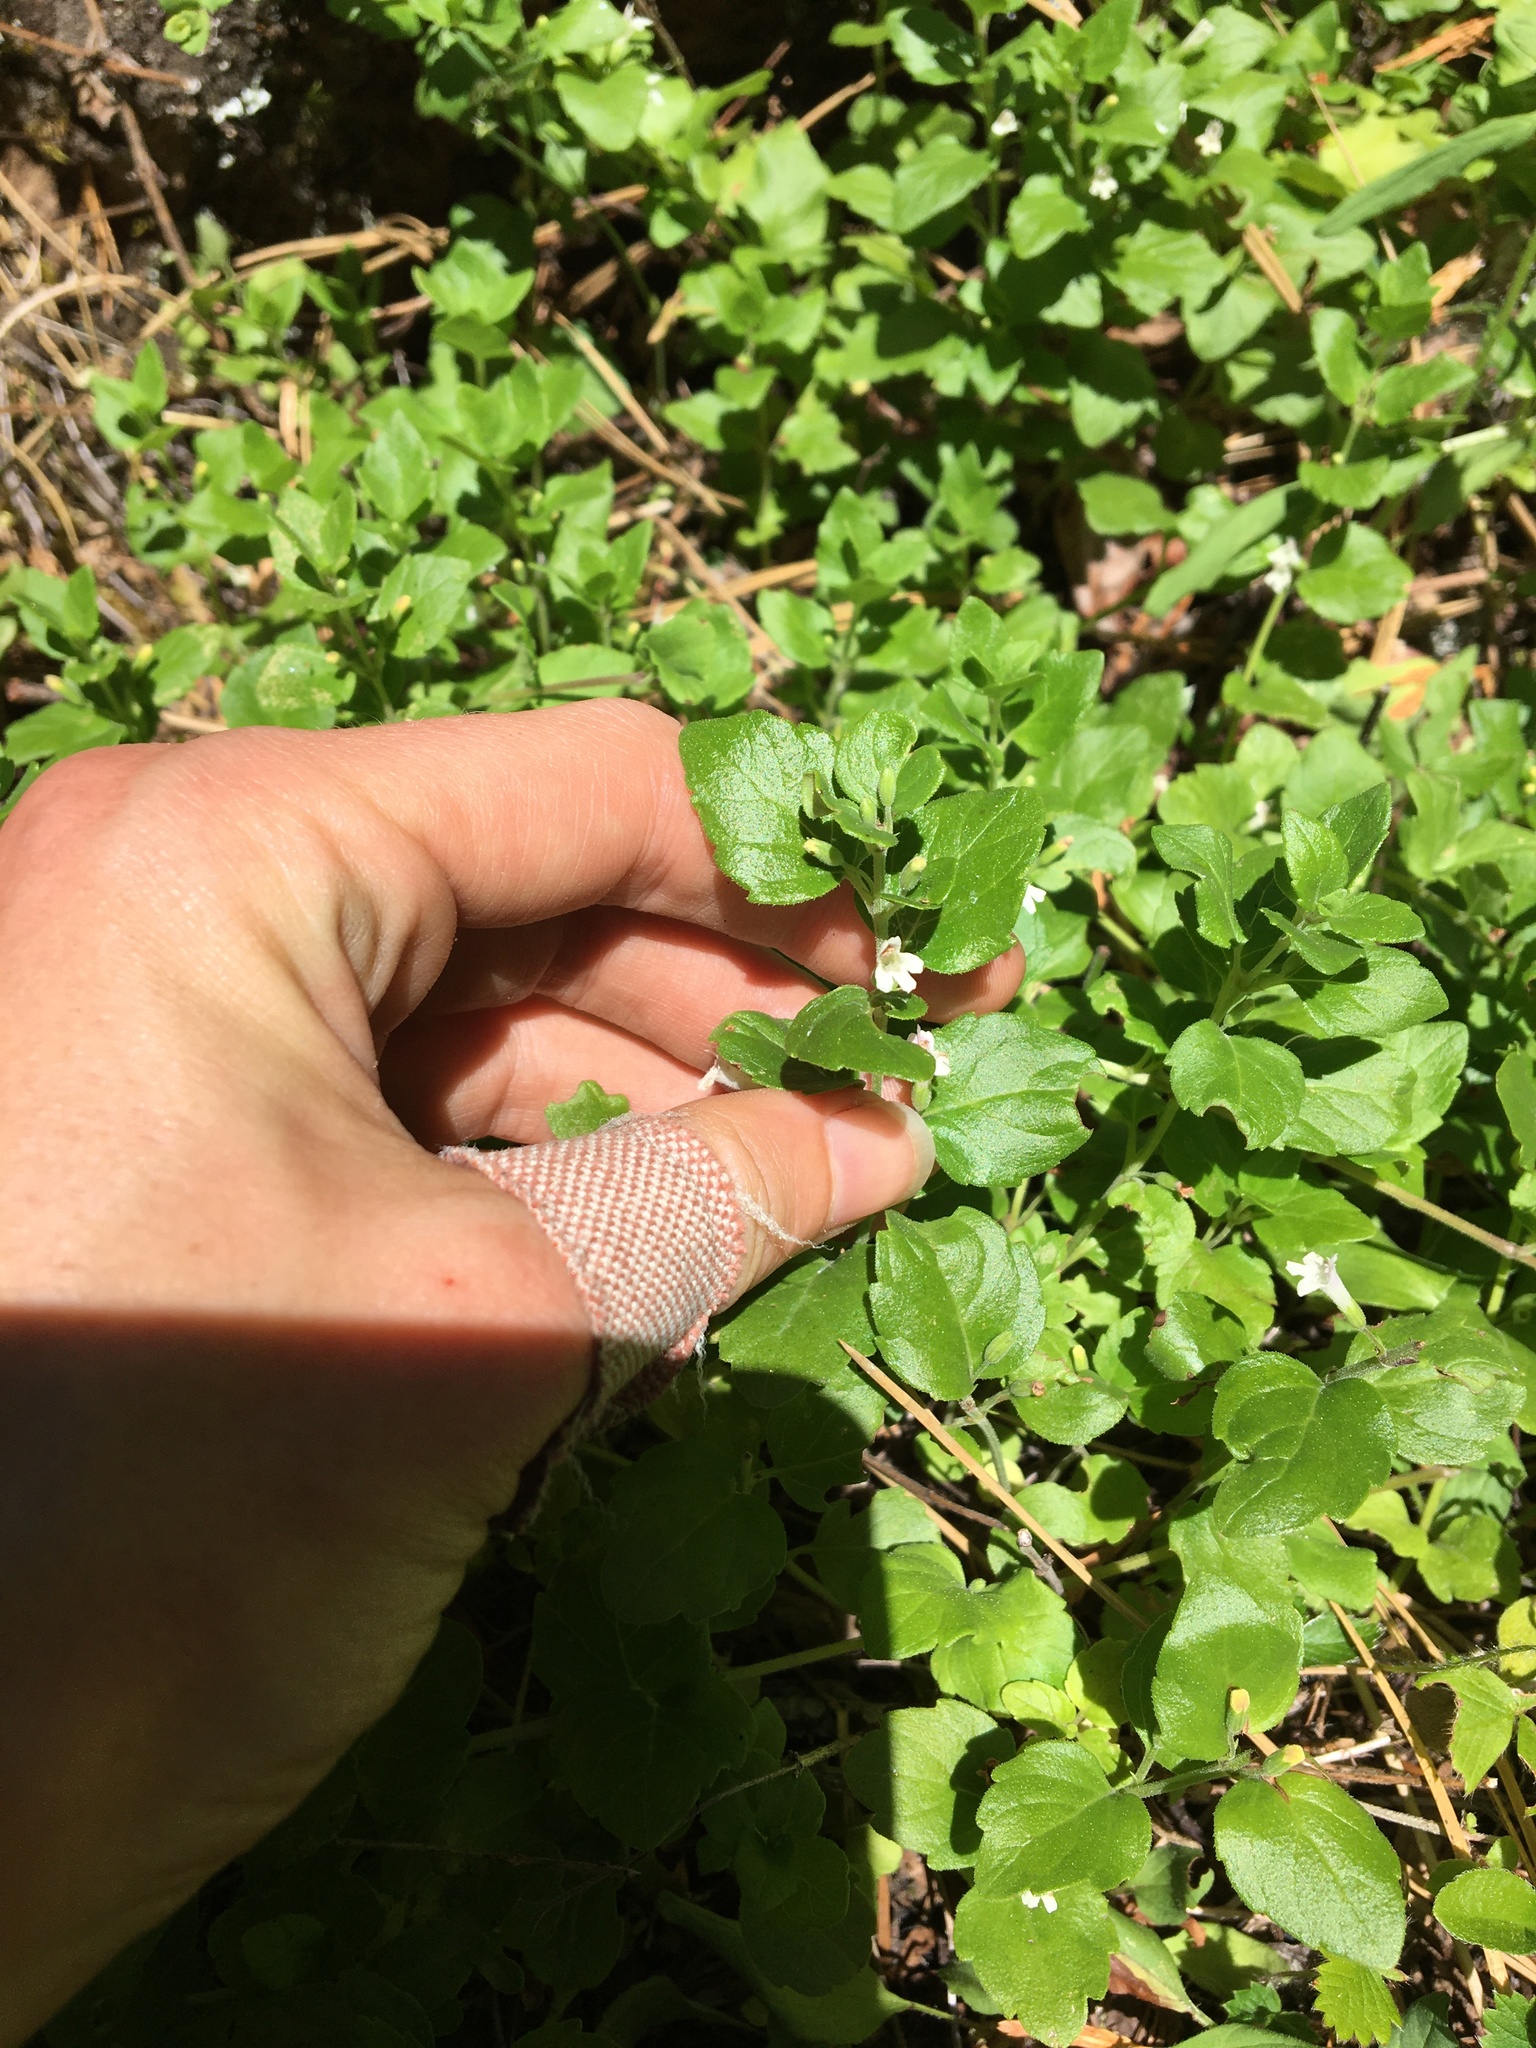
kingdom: Plantae
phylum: Tracheophyta
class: Magnoliopsida
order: Lamiales
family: Lamiaceae
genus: Micromeria
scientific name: Micromeria douglasii
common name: Yerba buena
